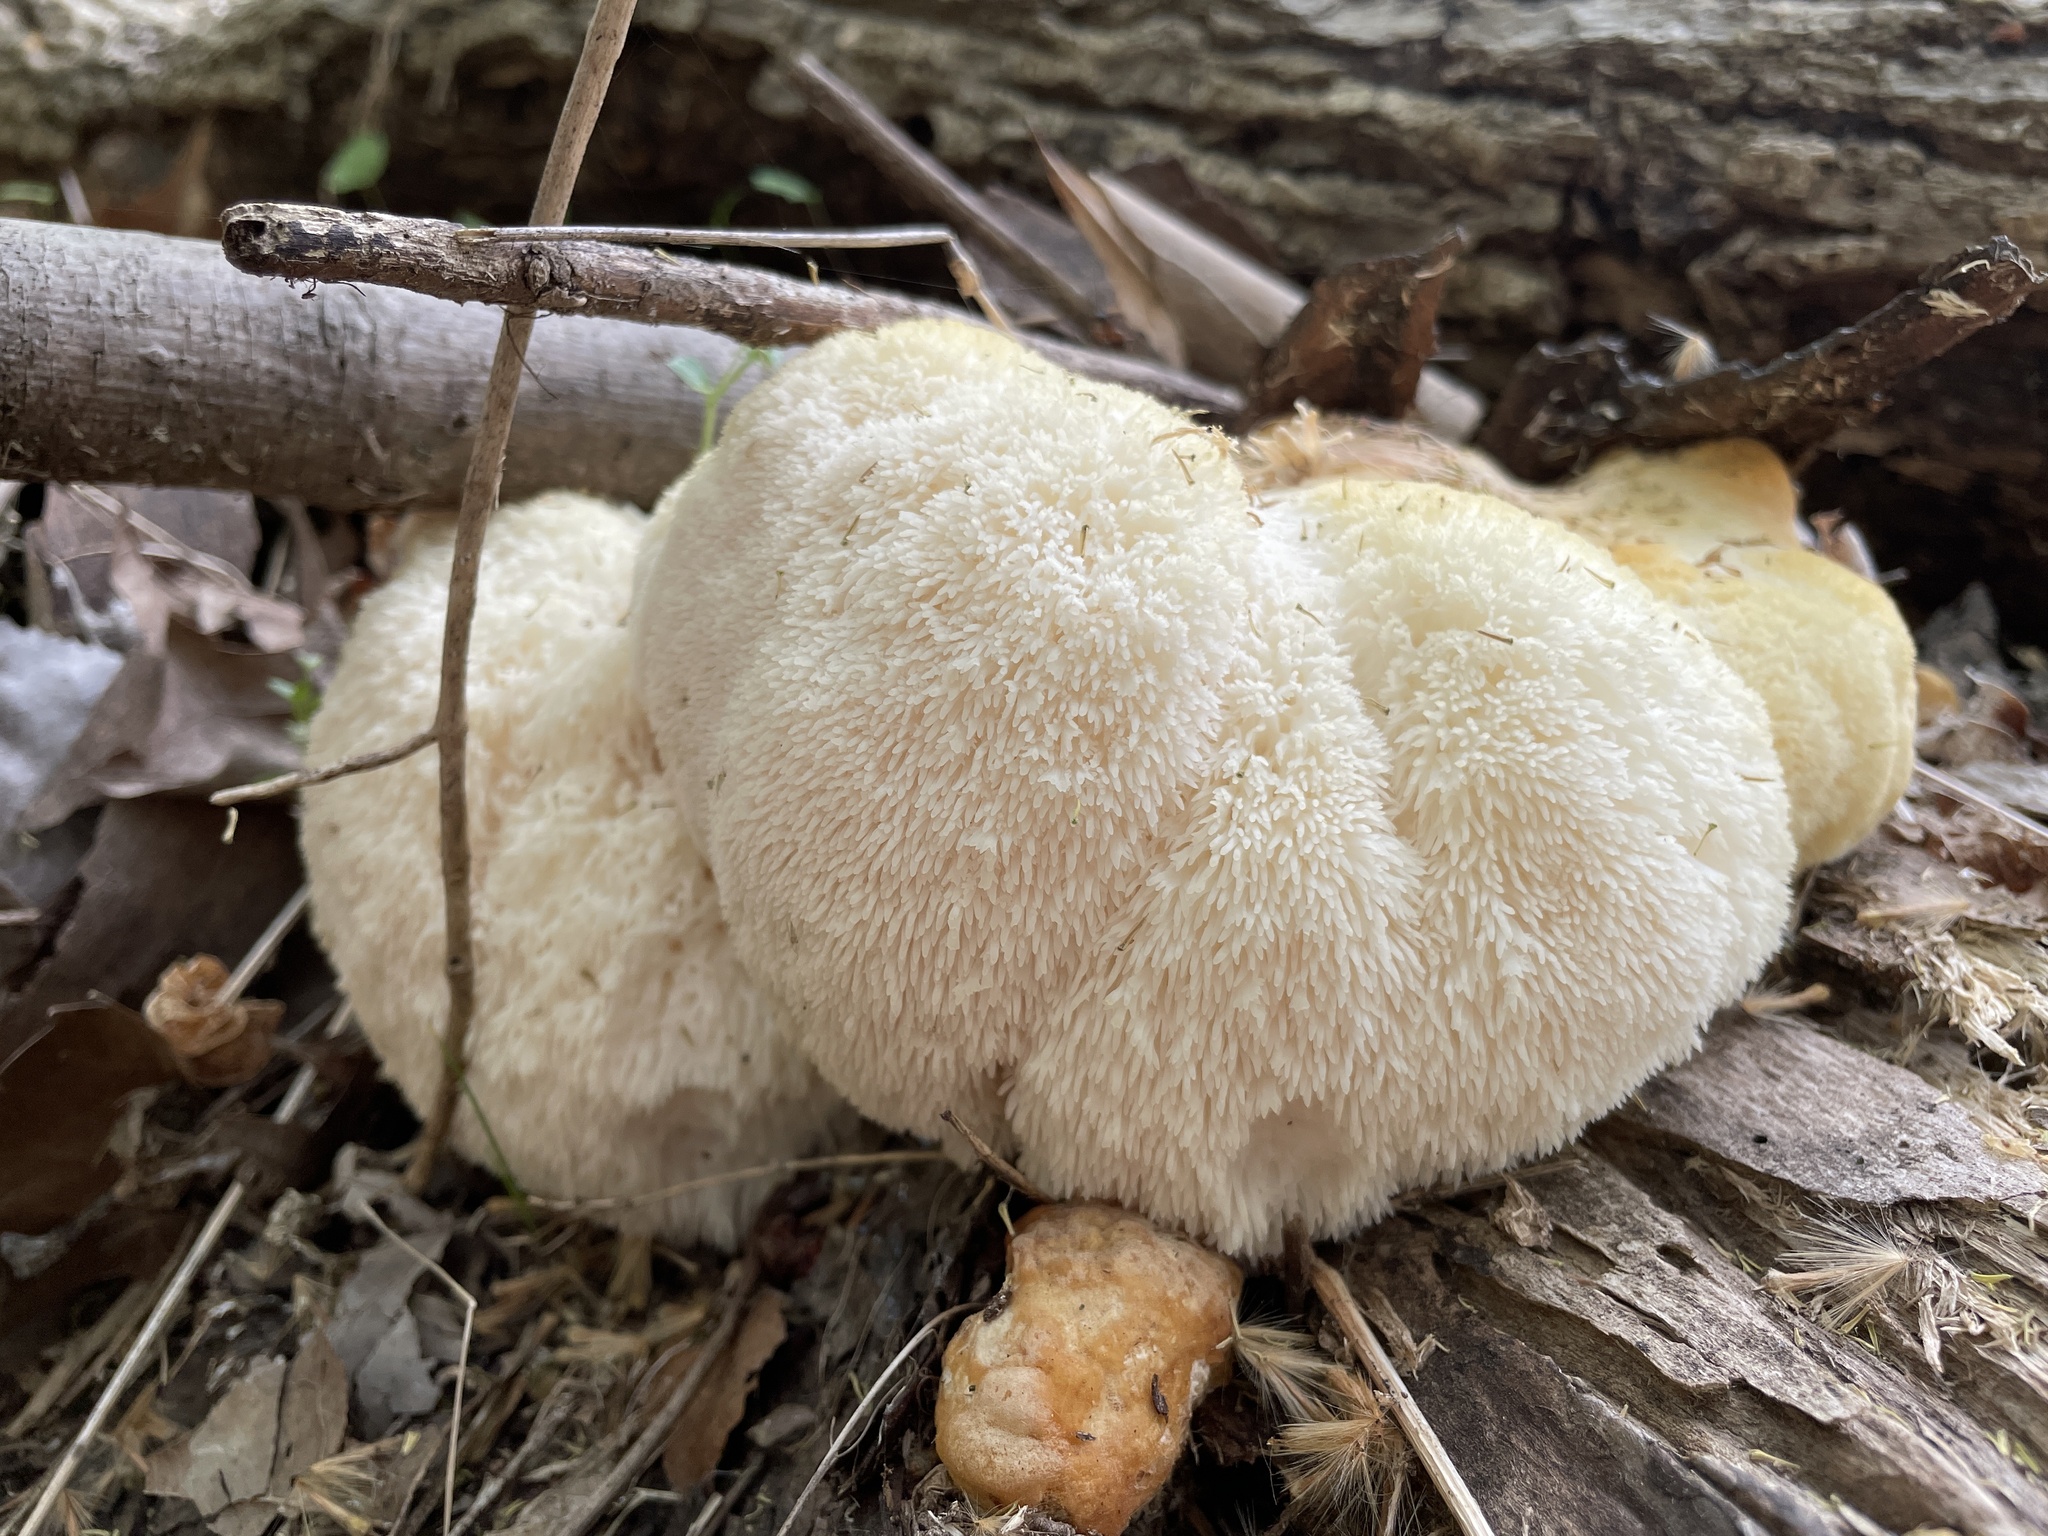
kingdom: Fungi
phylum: Basidiomycota
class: Agaricomycetes
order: Russulales
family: Hericiaceae
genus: Hericium
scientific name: Hericium erinaceus
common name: Bearded tooth
